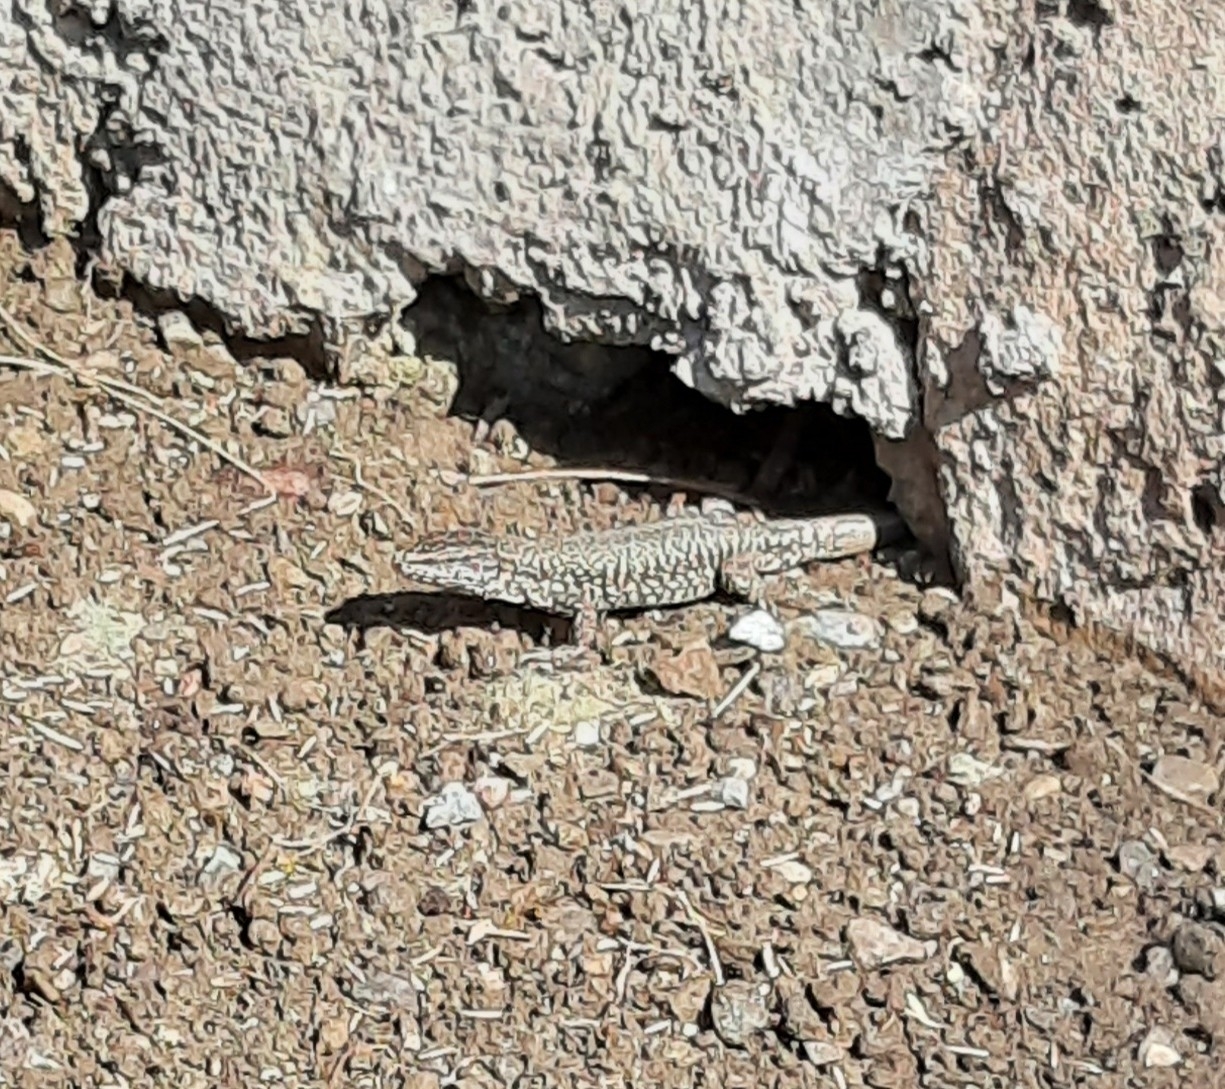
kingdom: Animalia
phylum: Chordata
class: Squamata
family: Lacertidae
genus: Podarcis
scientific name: Podarcis muralis
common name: Common wall lizard
